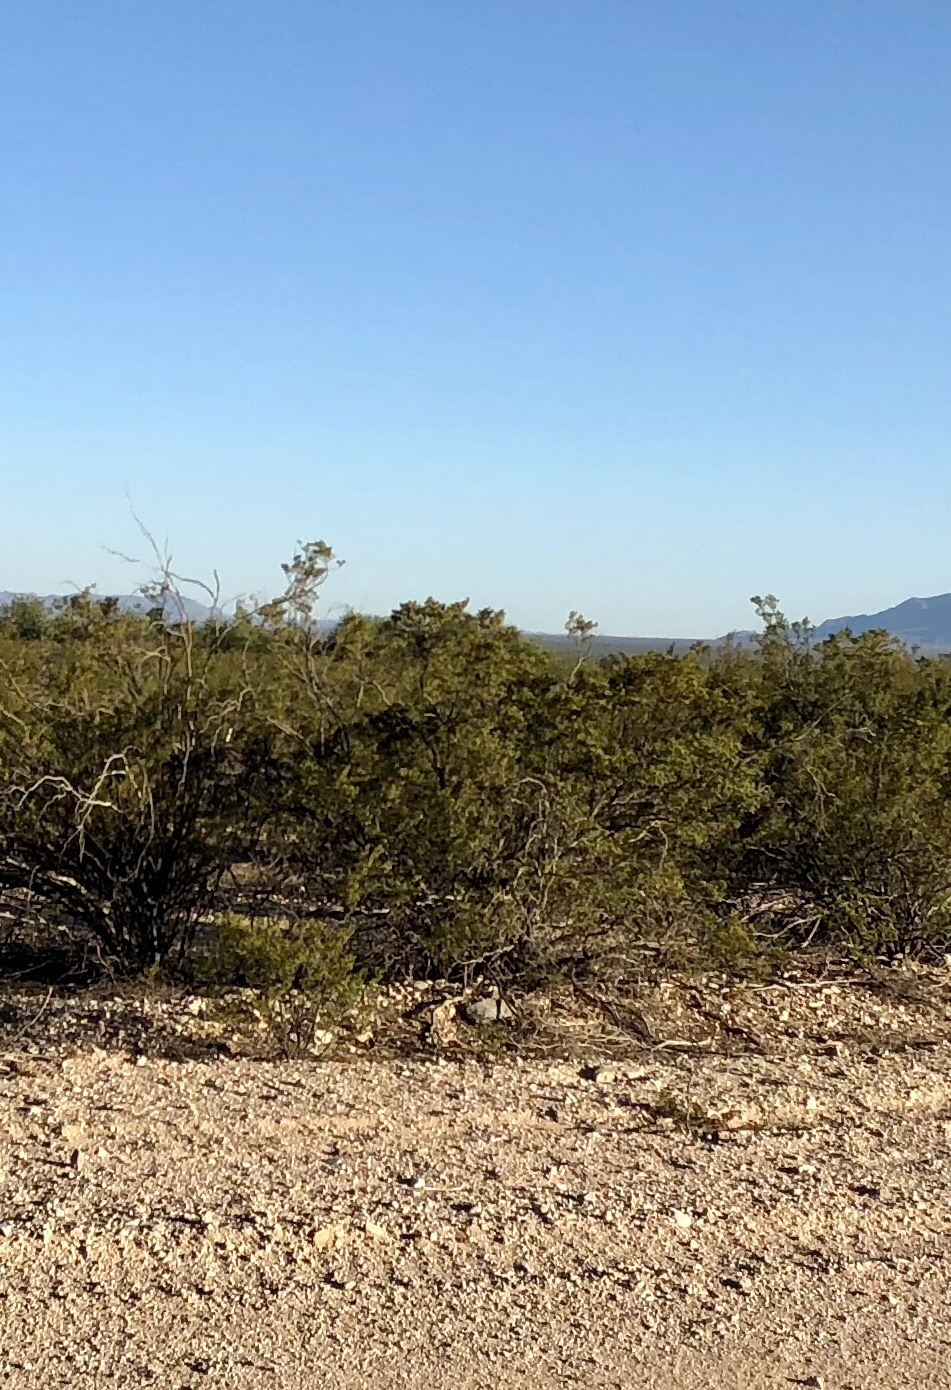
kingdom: Plantae
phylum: Tracheophyta
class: Magnoliopsida
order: Zygophyllales
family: Zygophyllaceae
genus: Larrea
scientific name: Larrea tridentata
